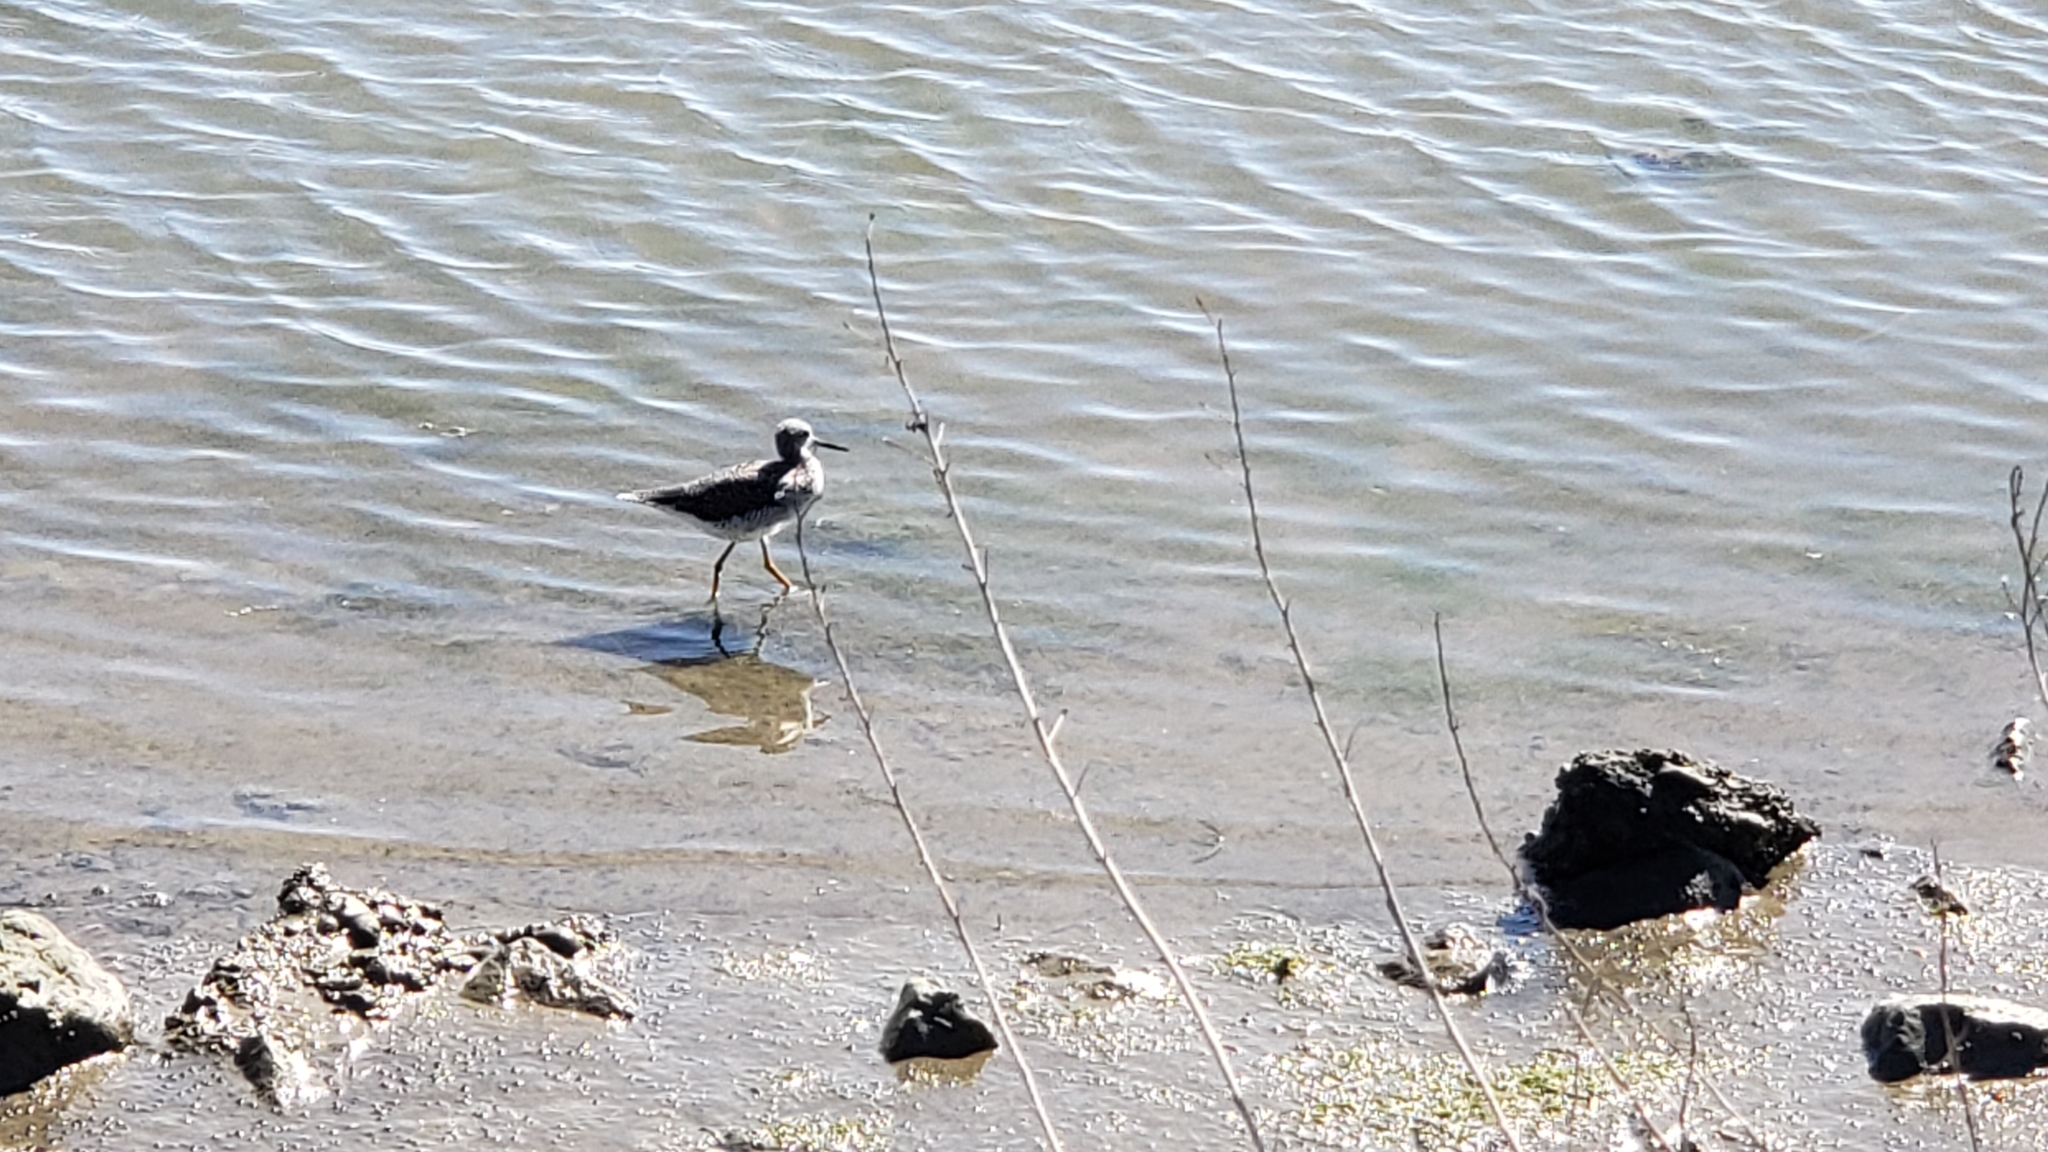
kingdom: Animalia
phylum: Chordata
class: Aves
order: Charadriiformes
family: Scolopacidae
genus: Tringa
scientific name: Tringa melanoleuca
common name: Greater yellowlegs
